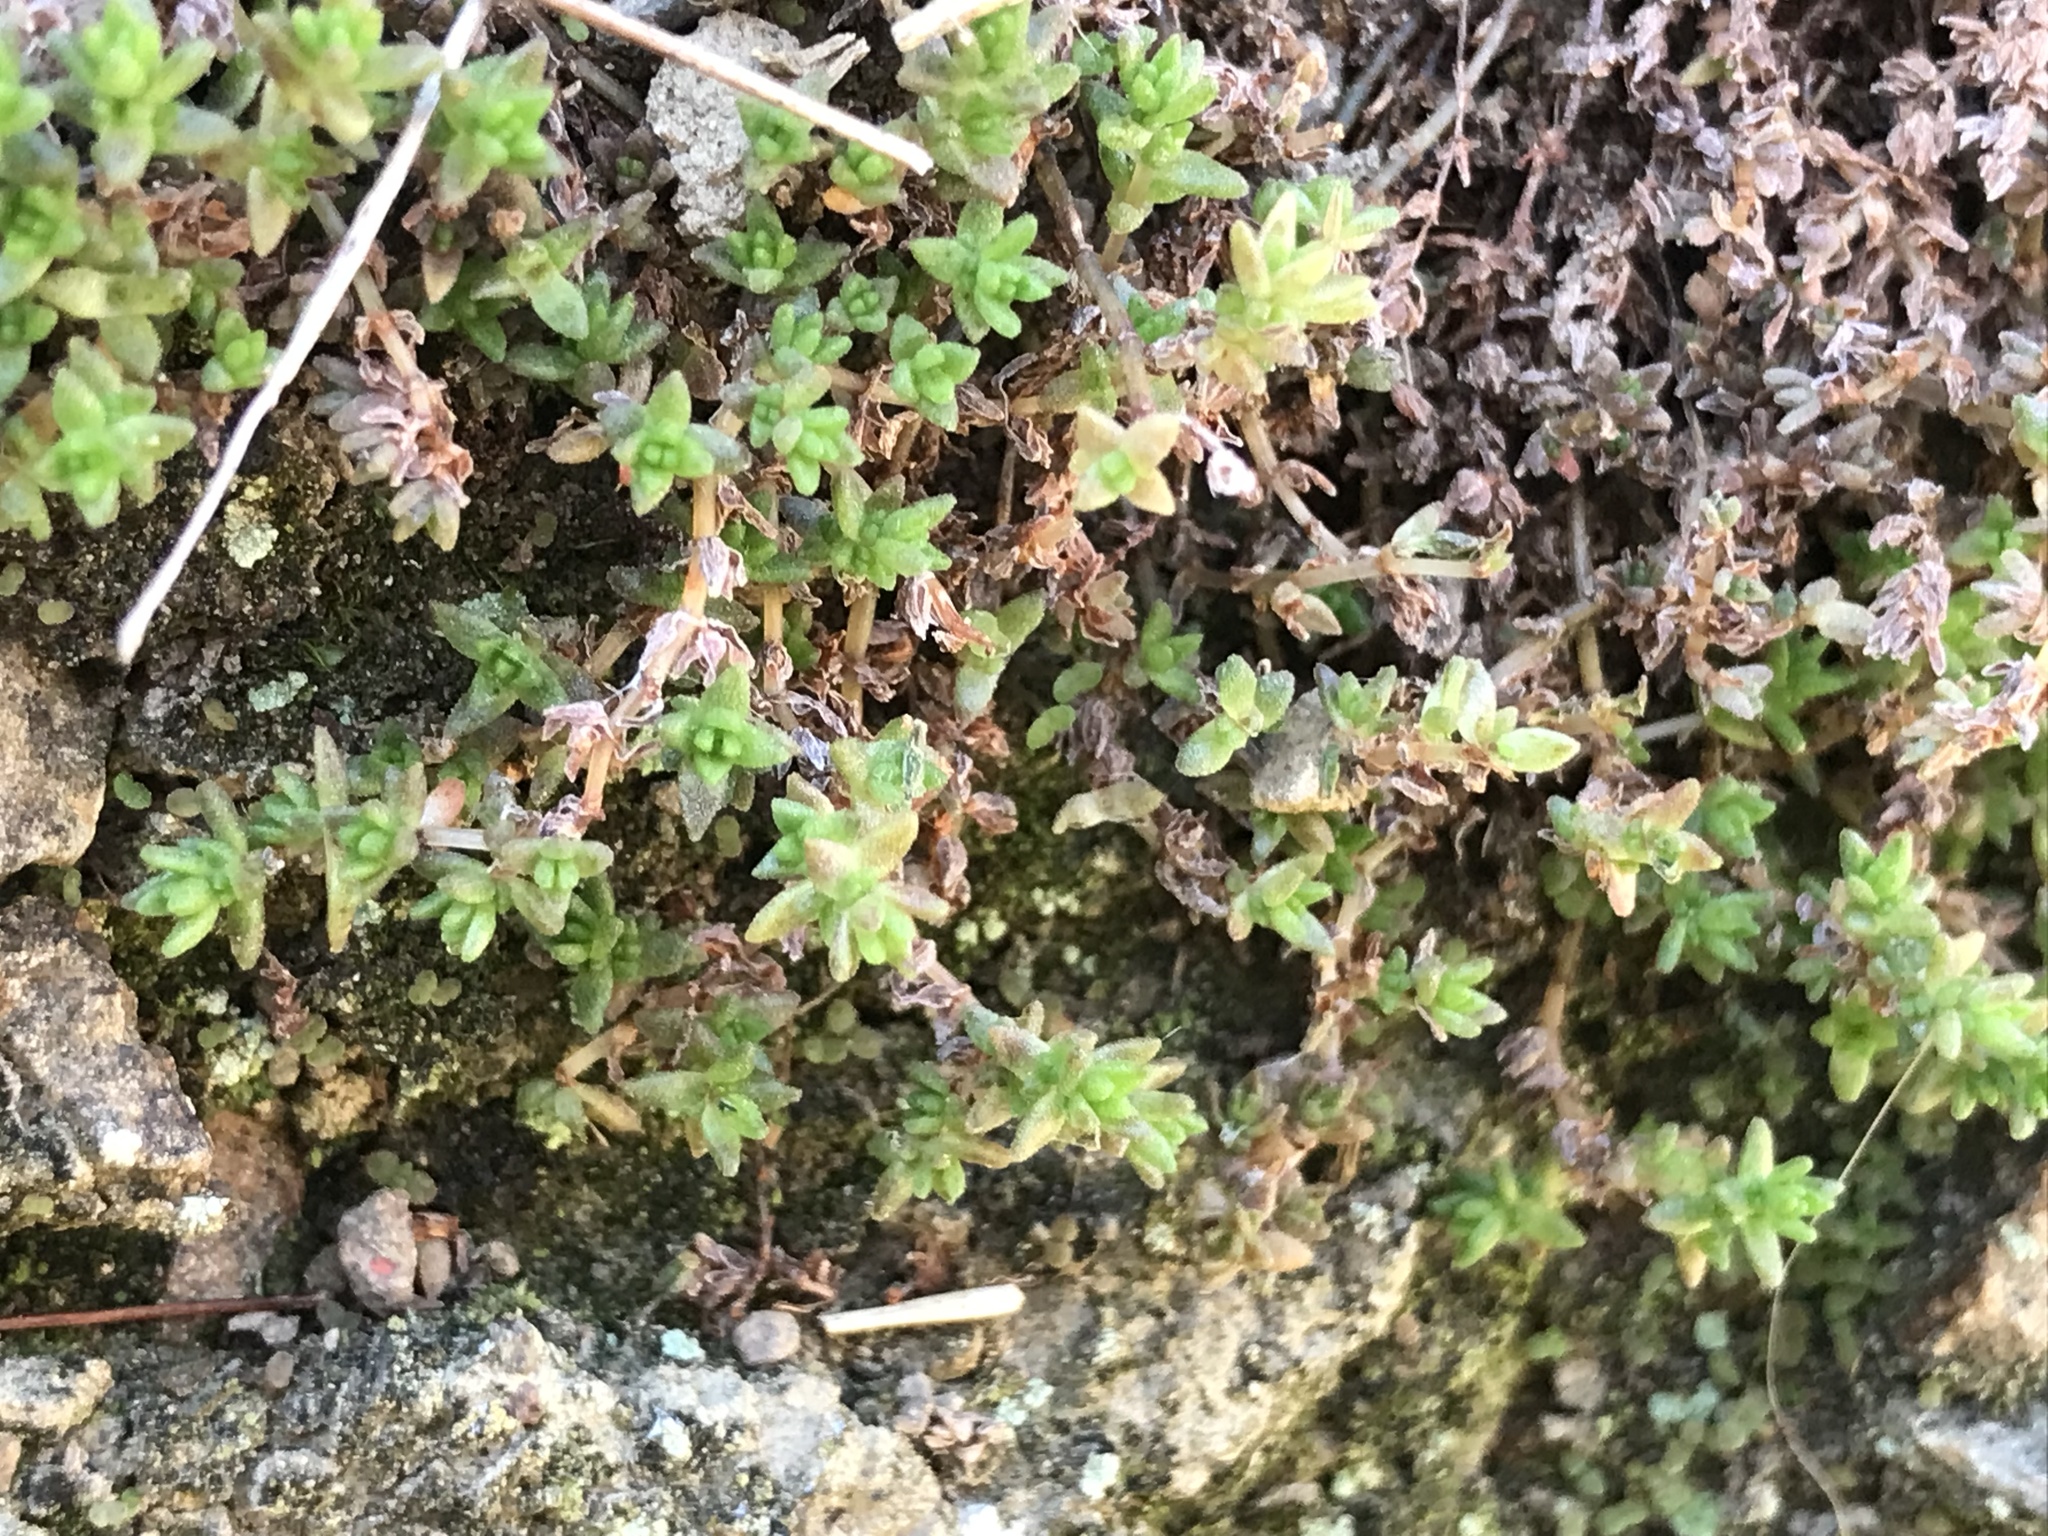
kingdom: Plantae
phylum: Tracheophyta
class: Magnoliopsida
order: Saxifragales
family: Crassulaceae
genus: Crassula
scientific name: Crassula moschata
